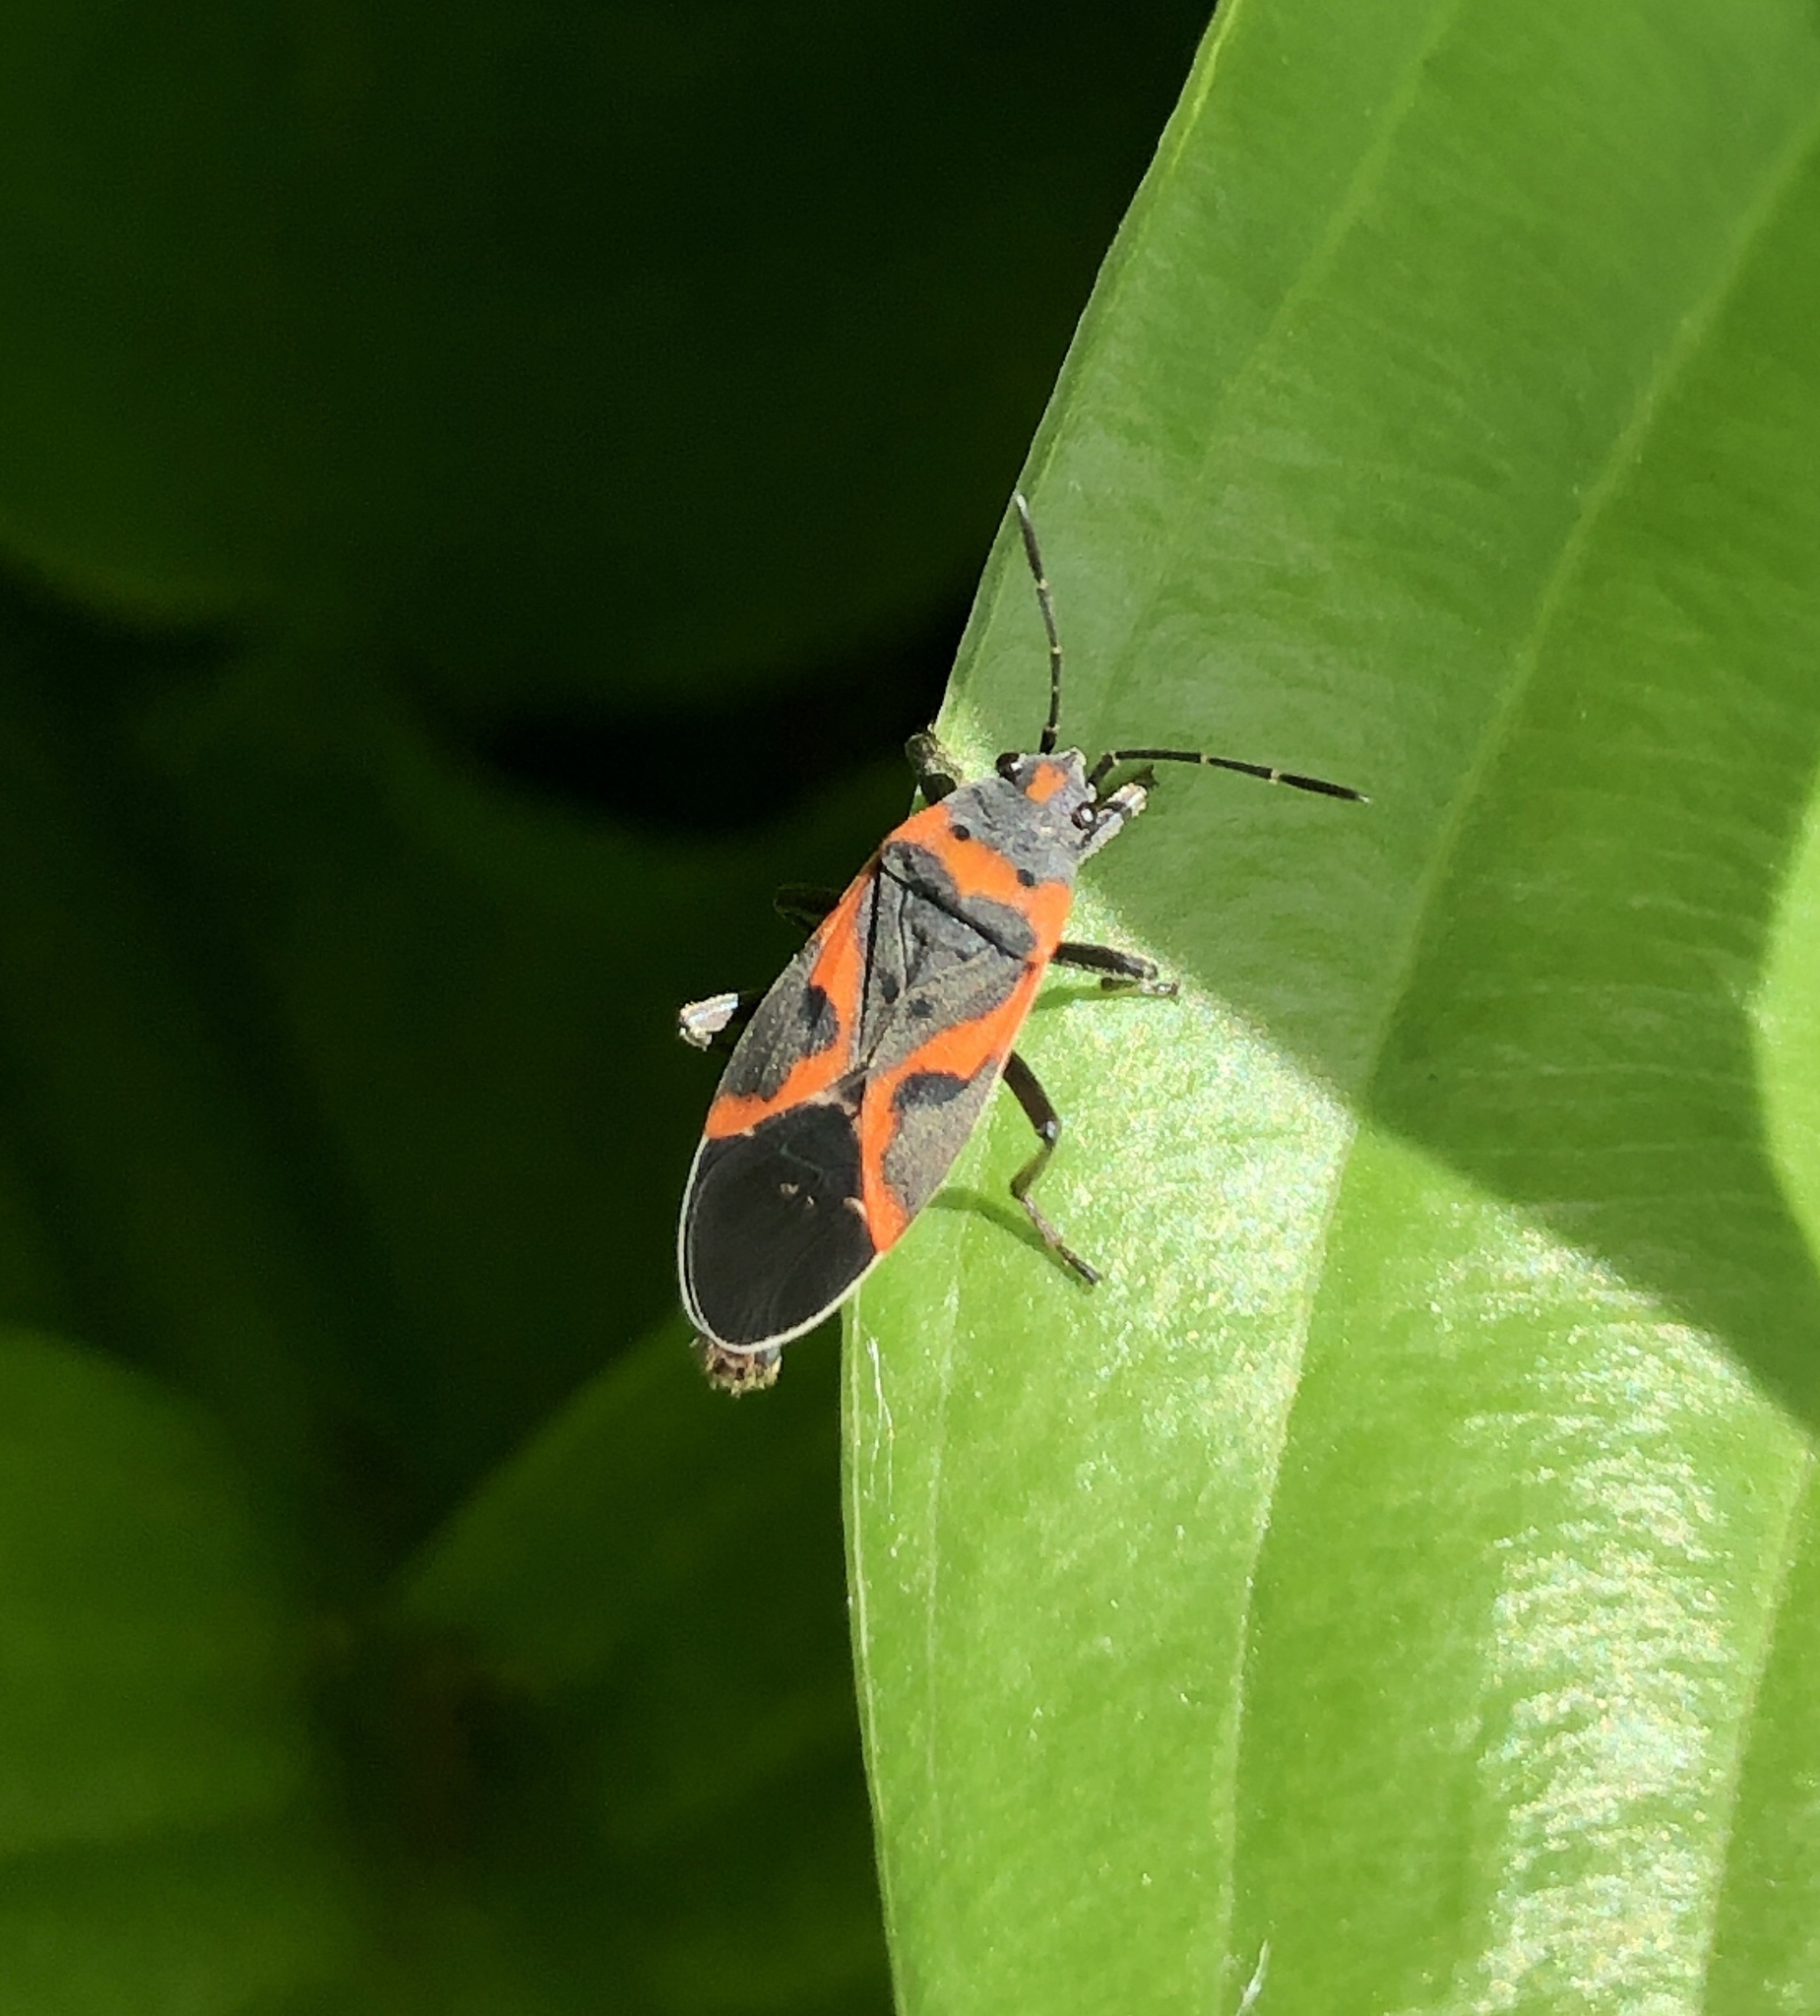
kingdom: Animalia
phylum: Arthropoda
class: Insecta
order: Hemiptera
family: Lygaeidae
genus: Lygaeus
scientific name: Lygaeus kalmii
